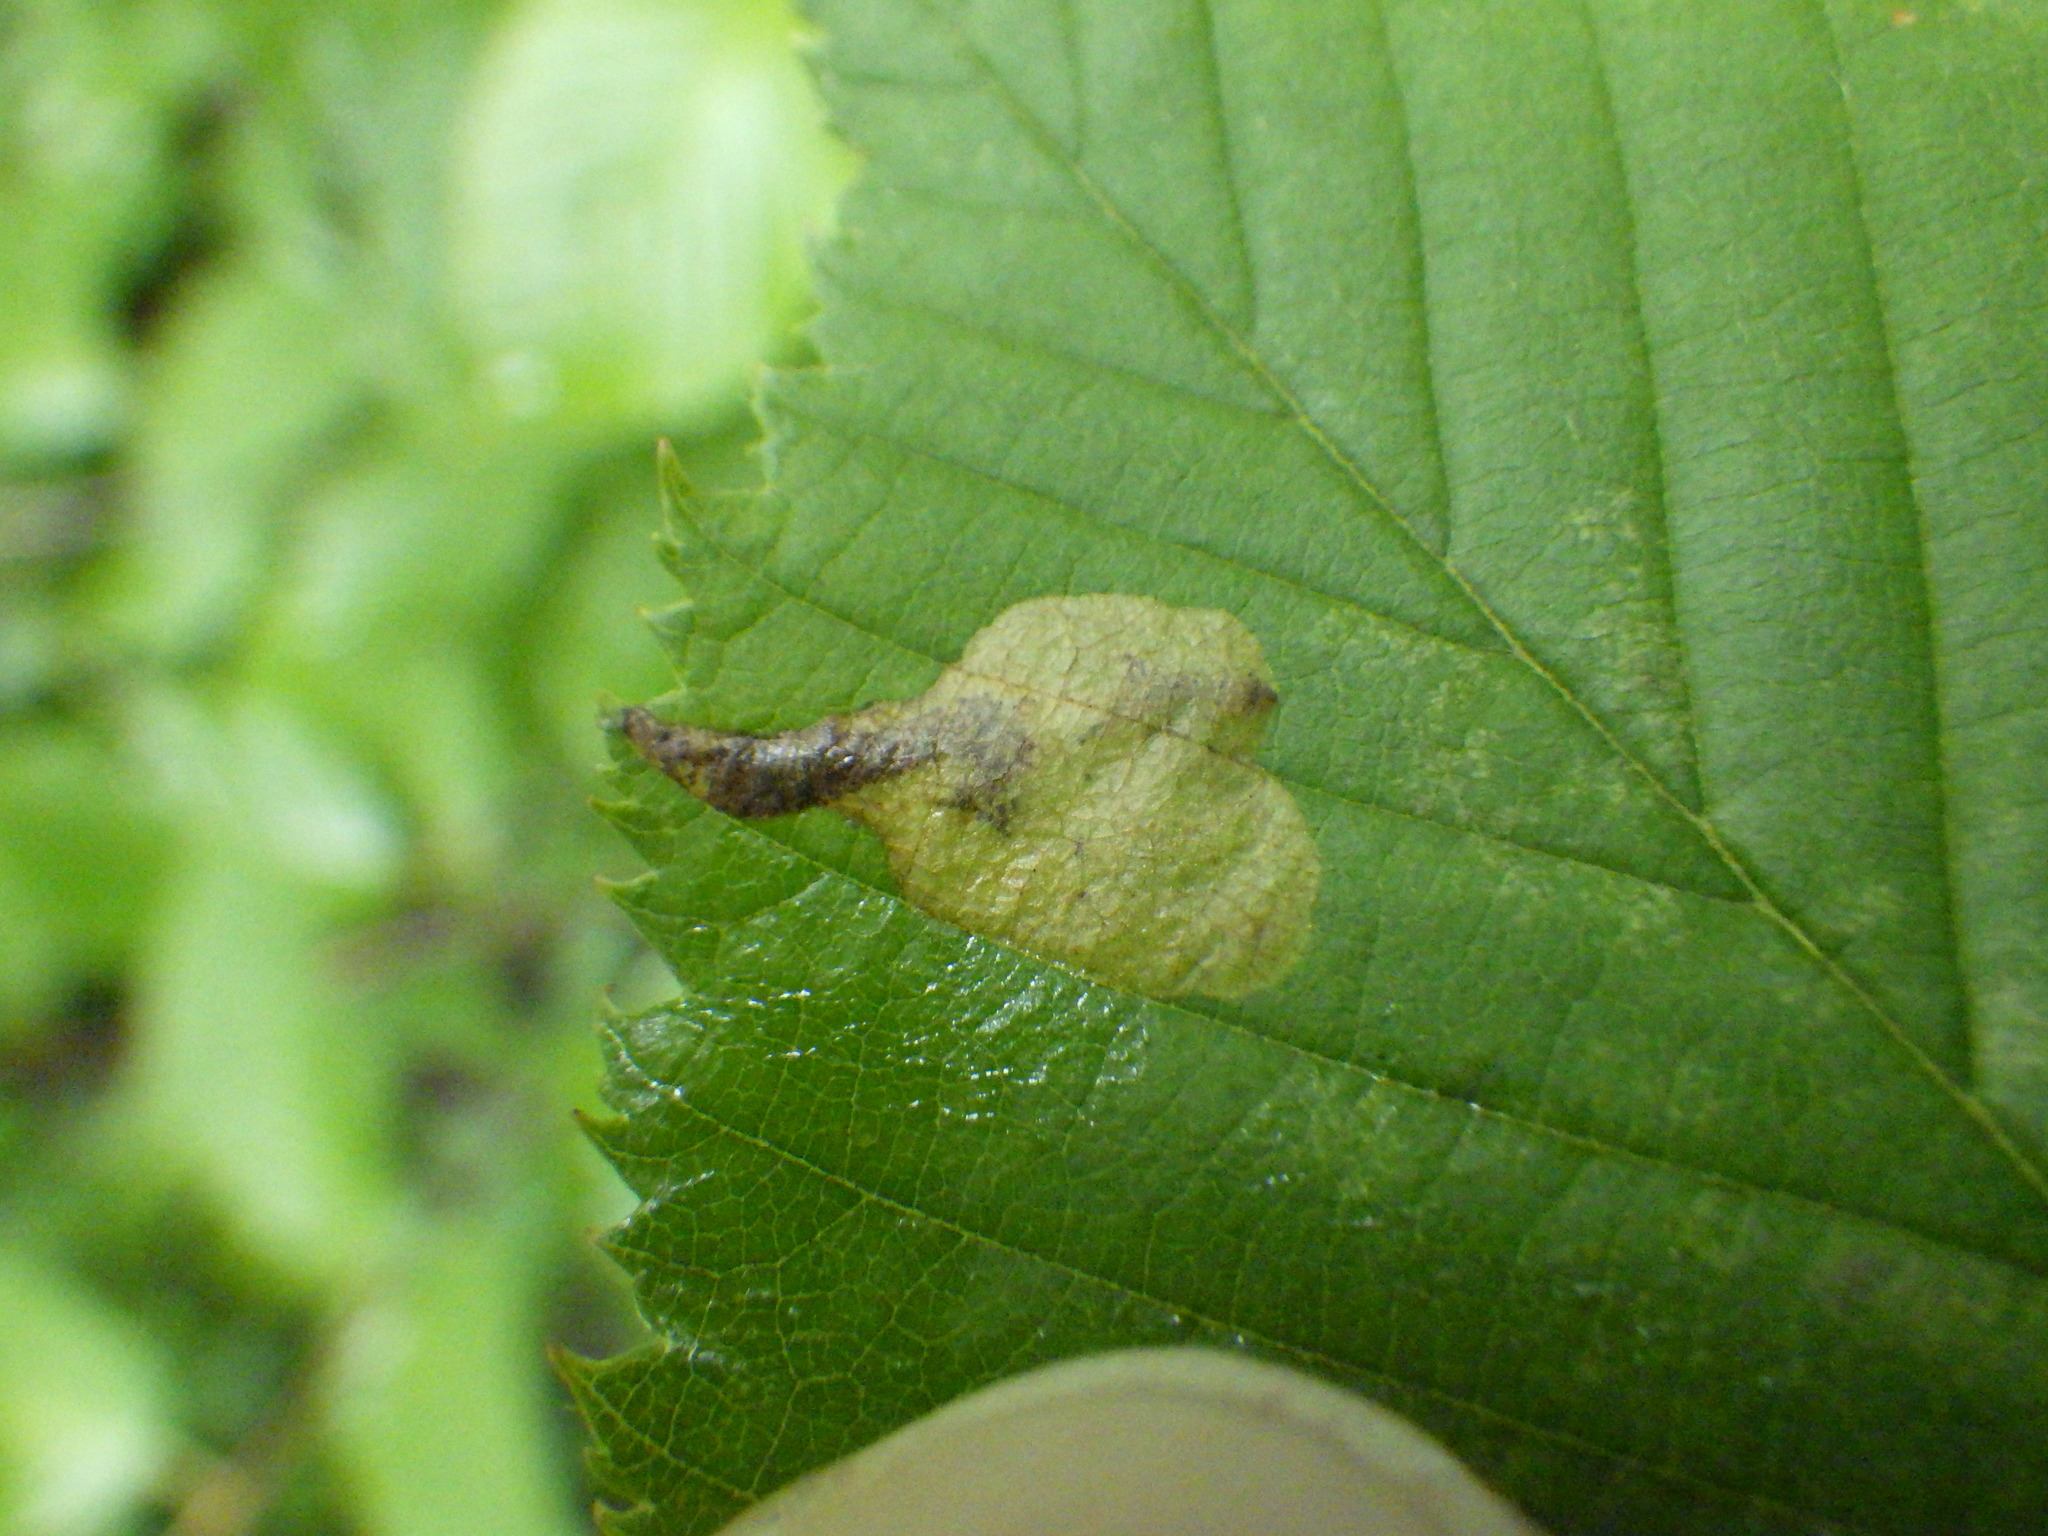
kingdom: Animalia
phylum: Arthropoda
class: Insecta
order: Hymenoptera
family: Tenthredinidae
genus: Fenusella
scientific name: Fenusella nana
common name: Early birch leaf edgeminer
